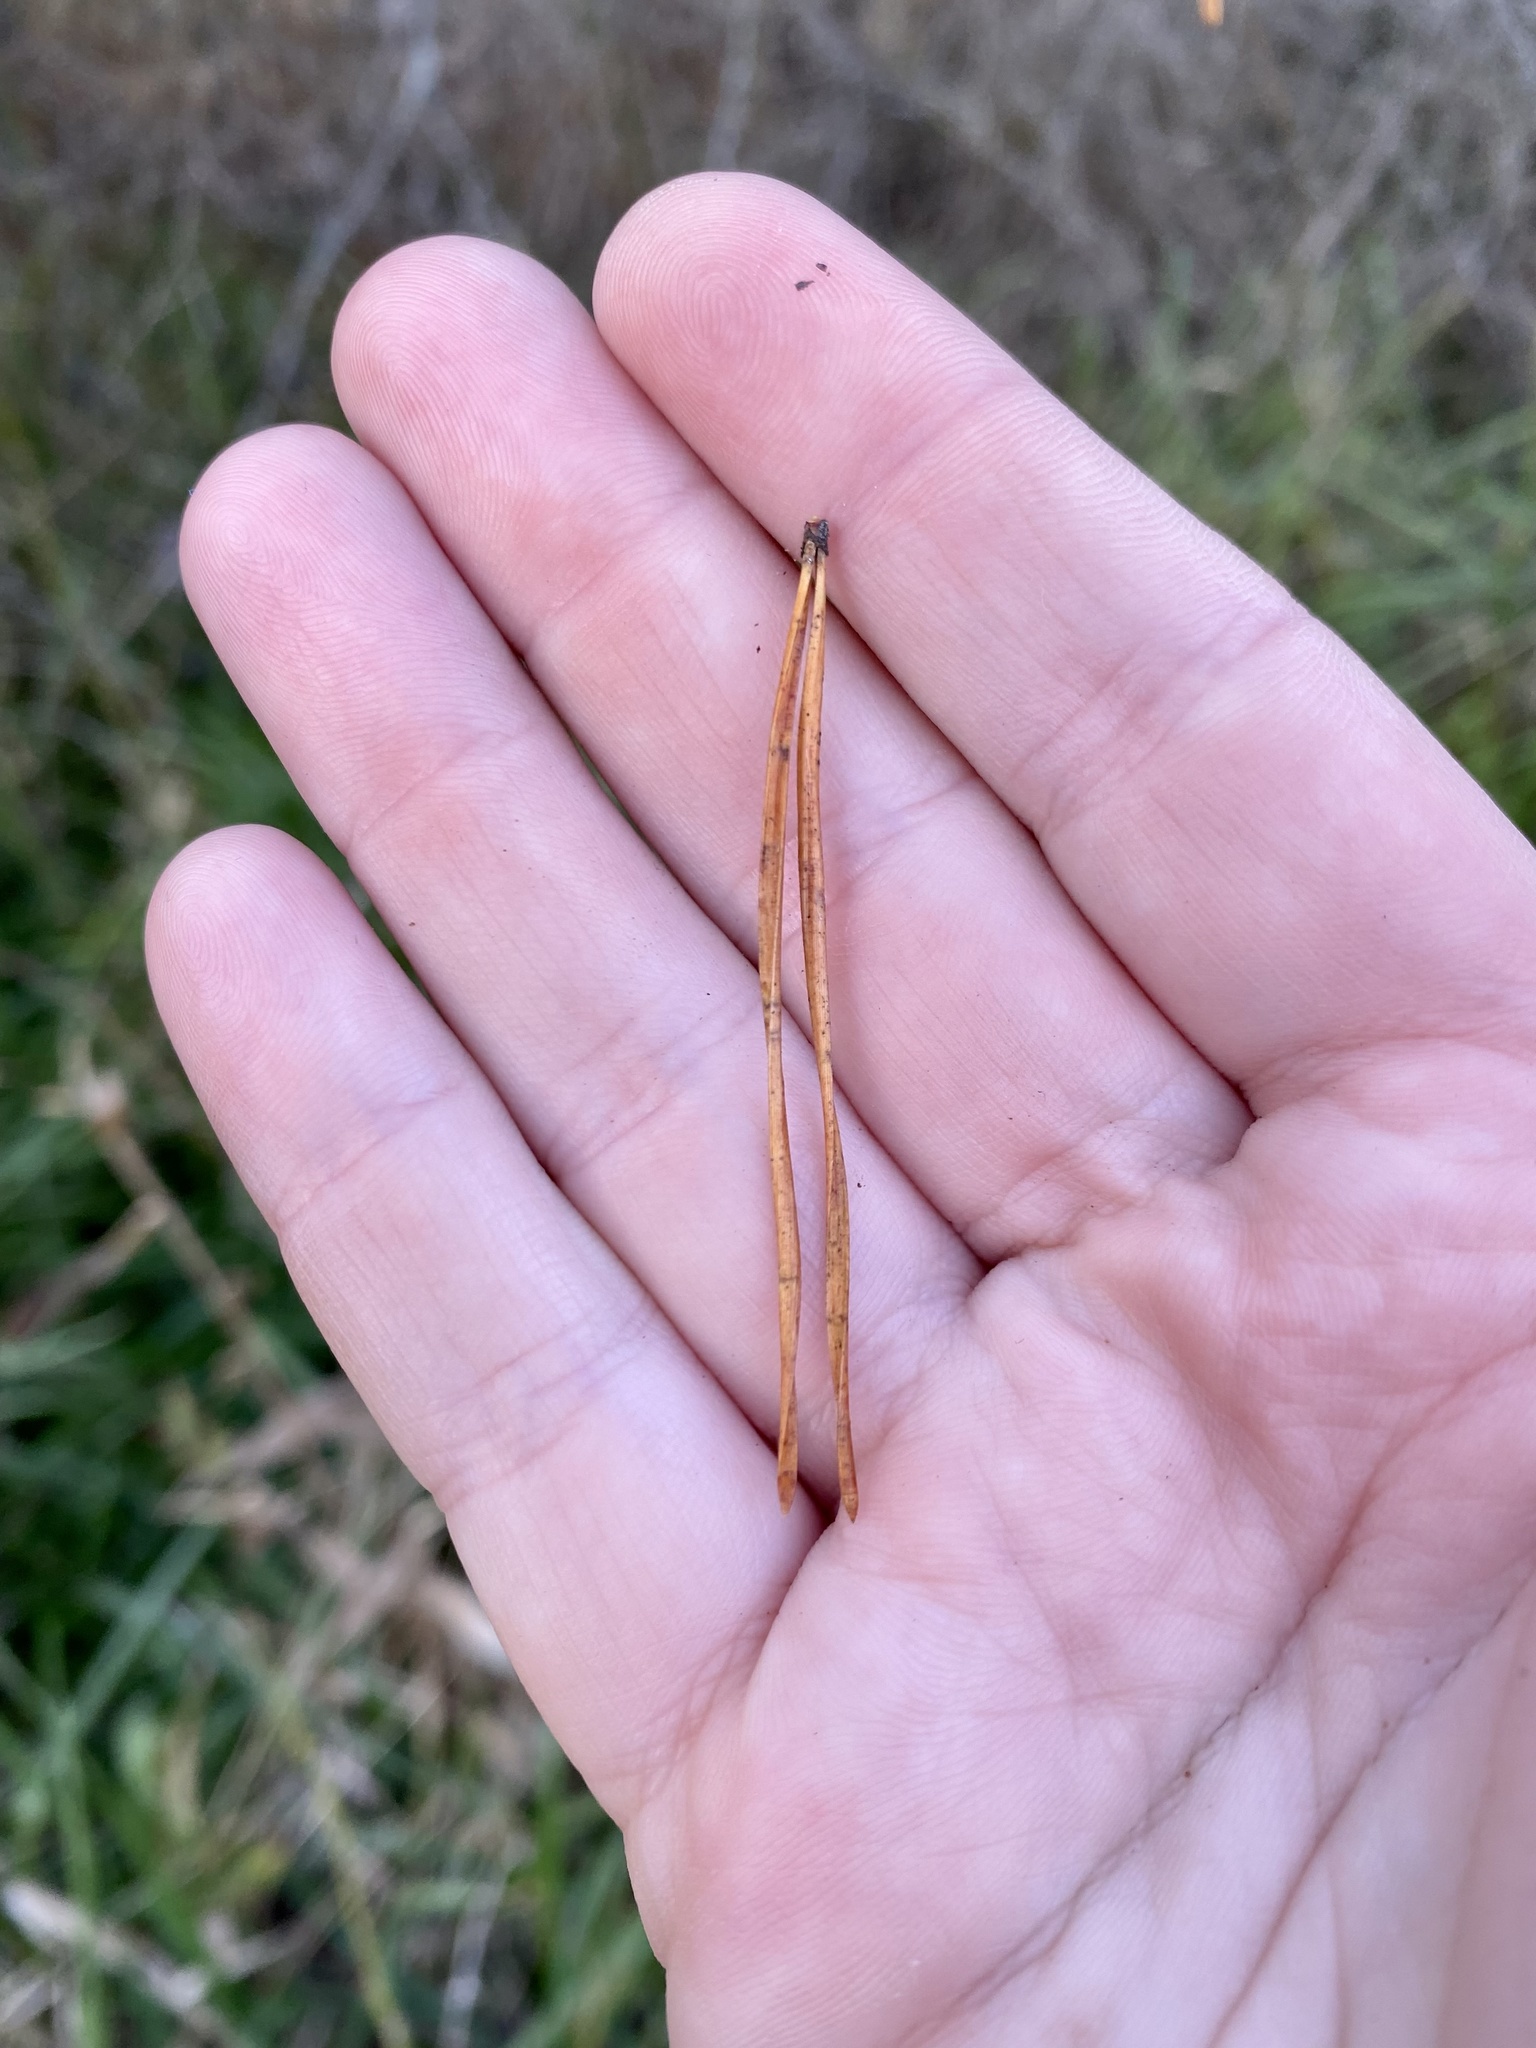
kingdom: Plantae
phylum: Tracheophyta
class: Pinopsida
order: Pinales
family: Pinaceae
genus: Pinus
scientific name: Pinus virginiana
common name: Scrub pine
